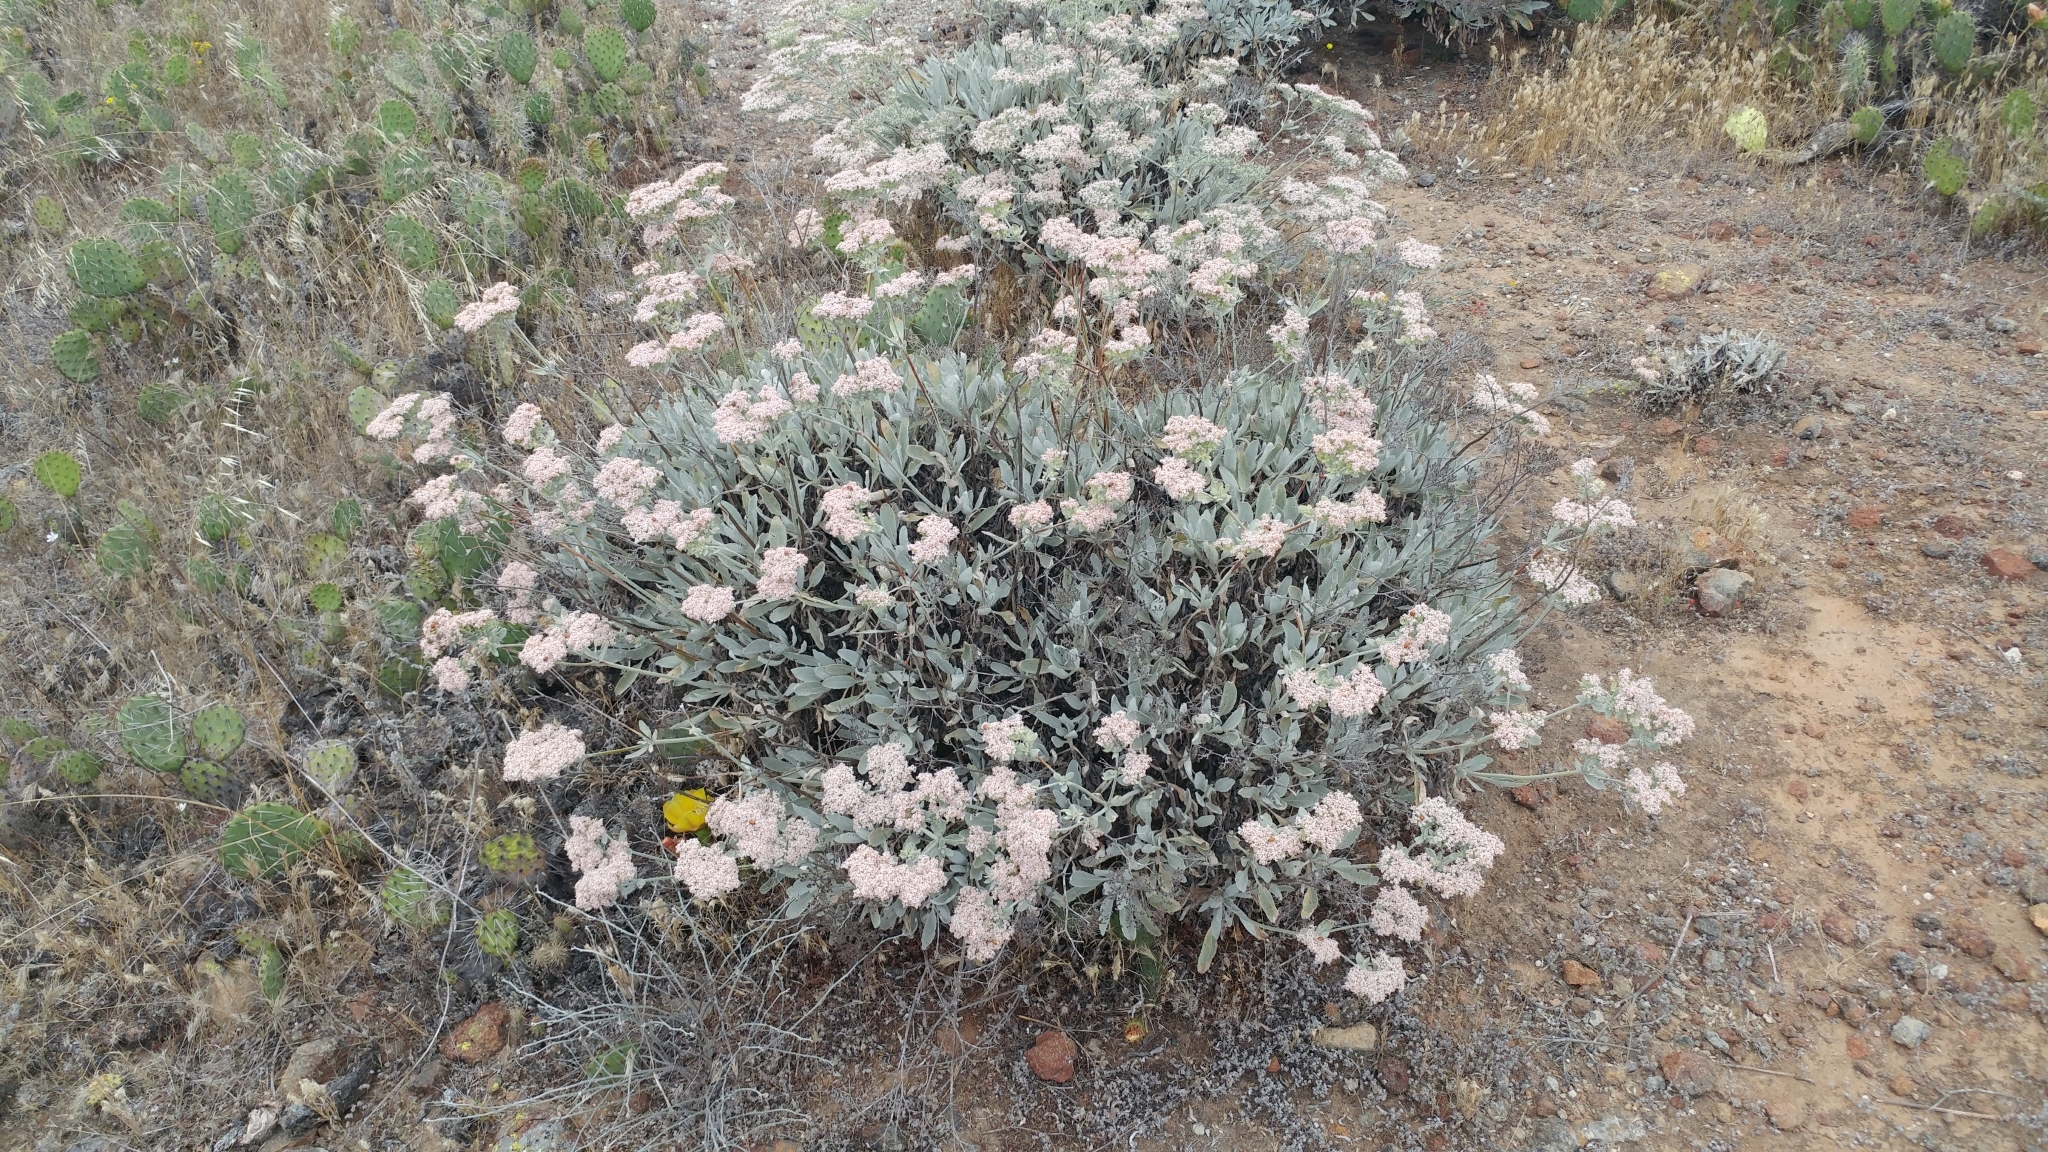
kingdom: Plantae
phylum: Tracheophyta
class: Magnoliopsida
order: Caryophyllales
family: Polygonaceae
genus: Eriogonum
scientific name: Eriogonum giganteum
